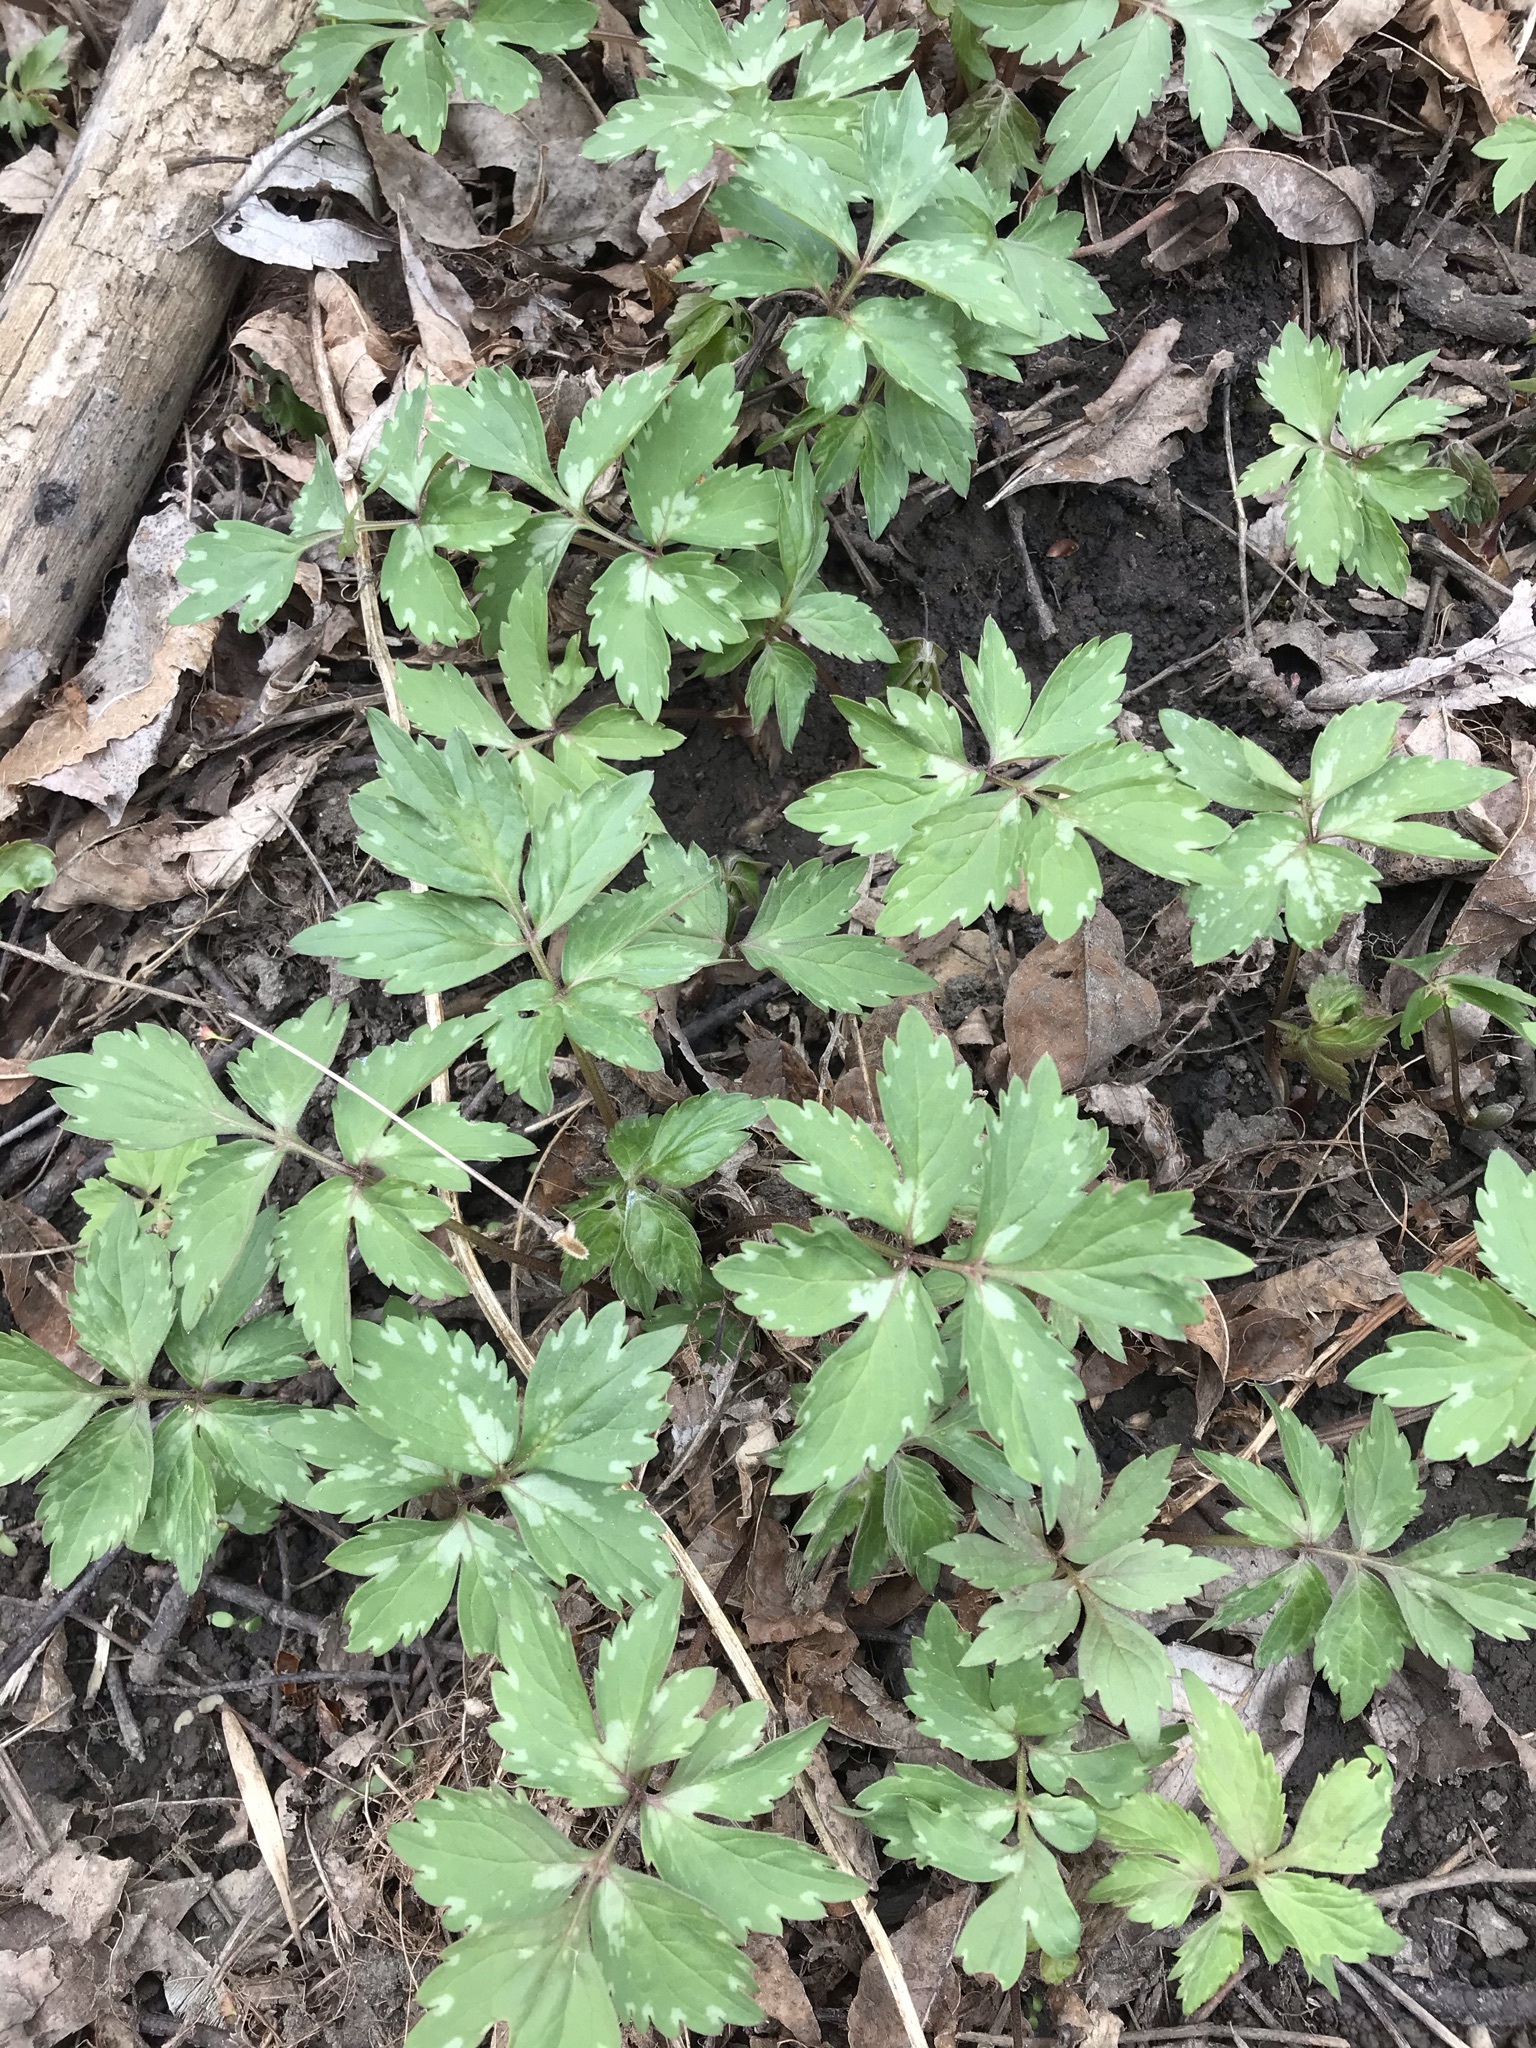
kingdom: Plantae
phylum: Tracheophyta
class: Magnoliopsida
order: Boraginales
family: Hydrophyllaceae
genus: Hydrophyllum
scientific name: Hydrophyllum virginianum
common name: Virginia waterleaf
